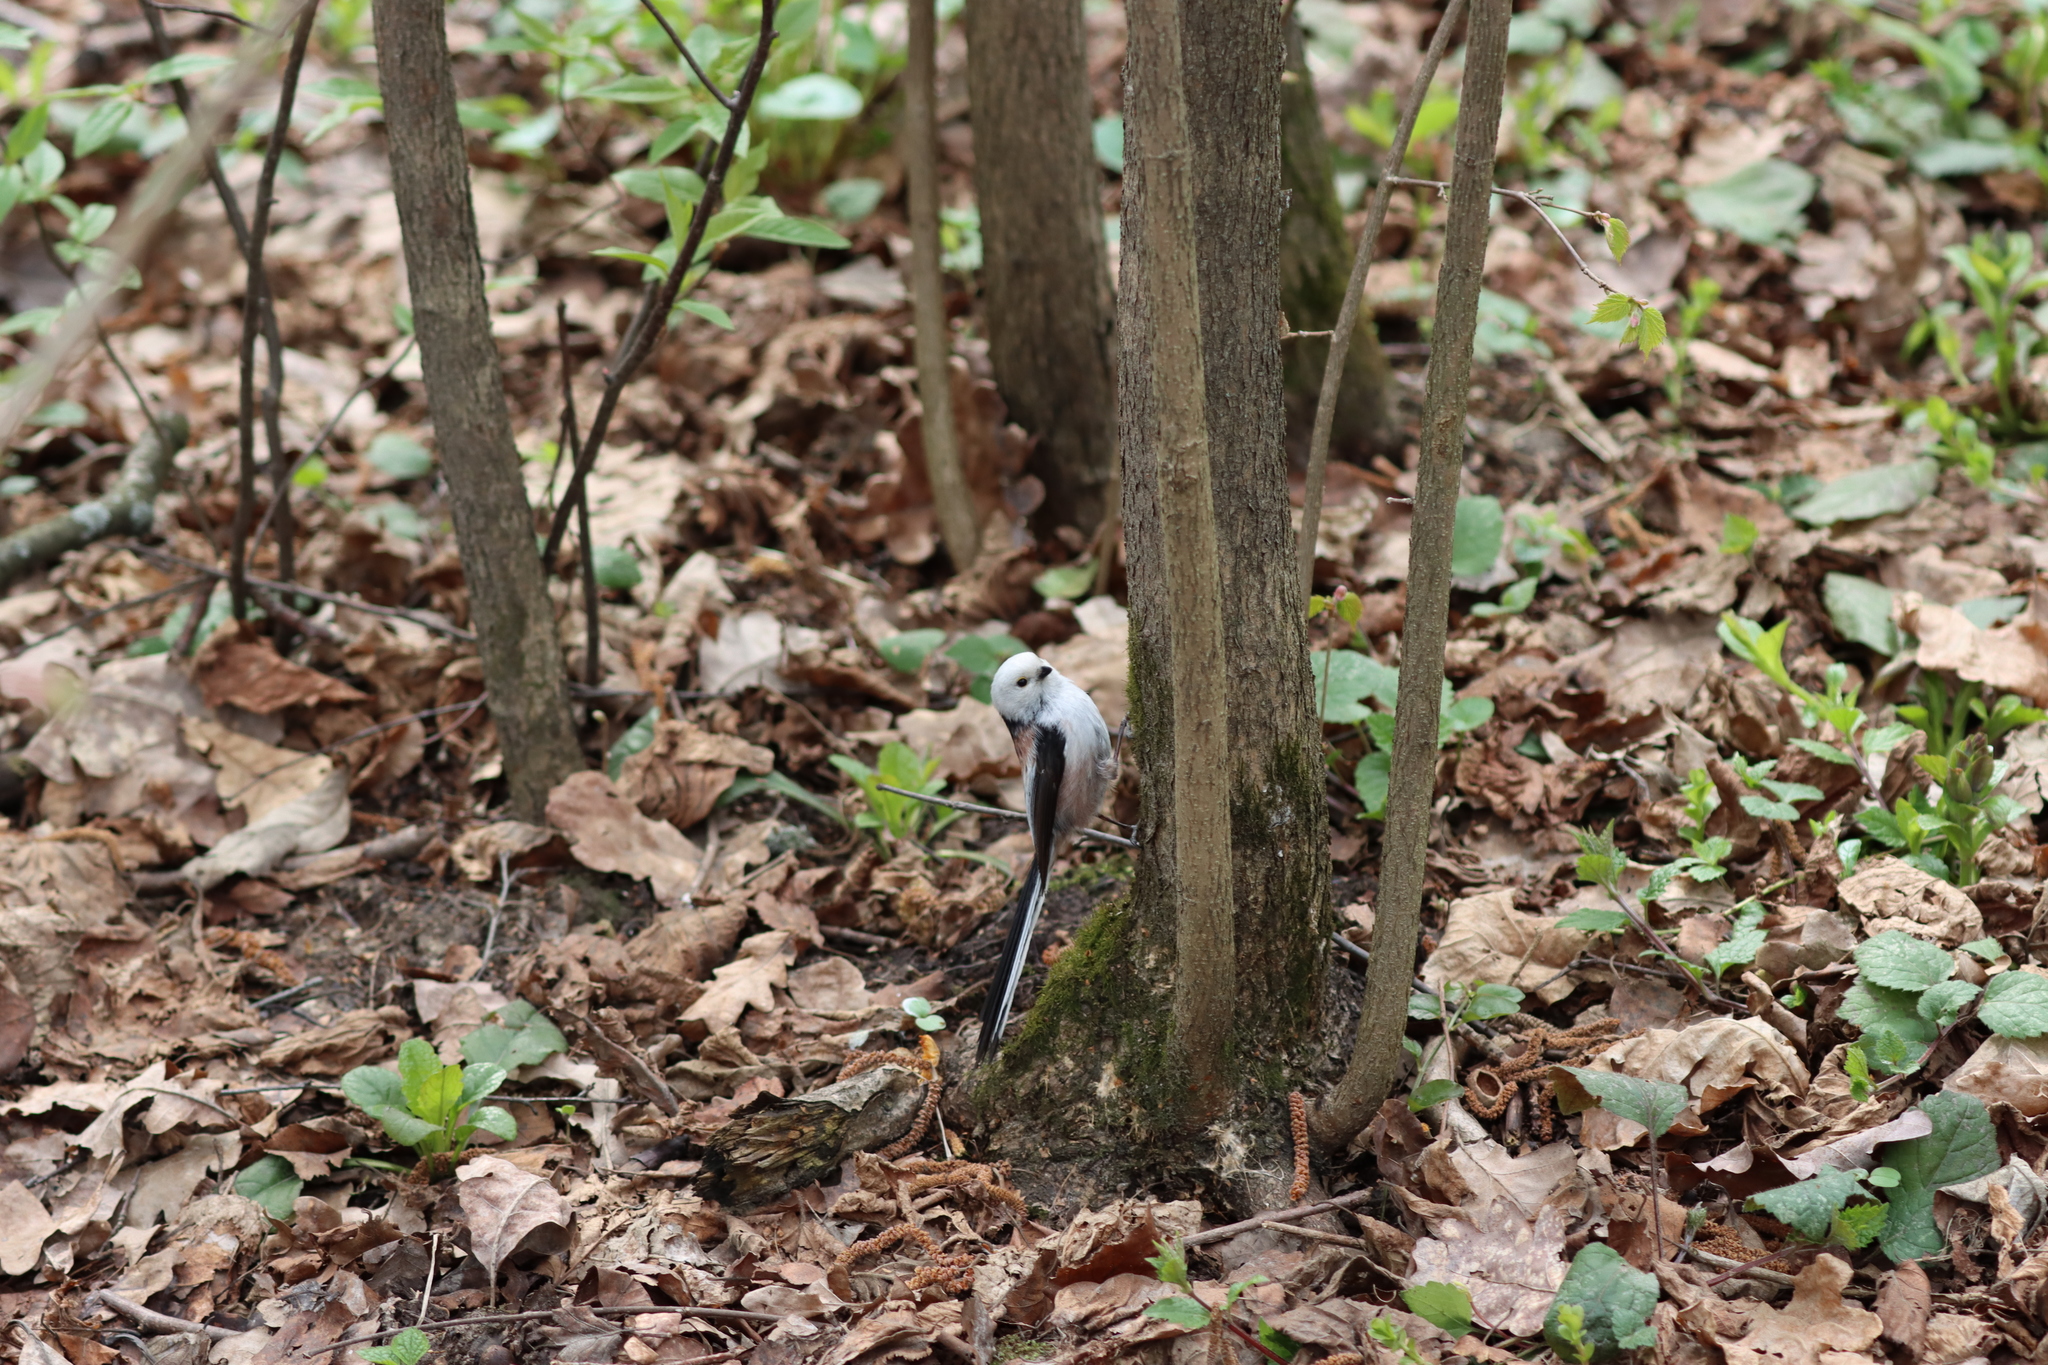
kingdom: Animalia
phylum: Chordata
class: Aves
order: Passeriformes
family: Aegithalidae
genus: Aegithalos
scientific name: Aegithalos caudatus
